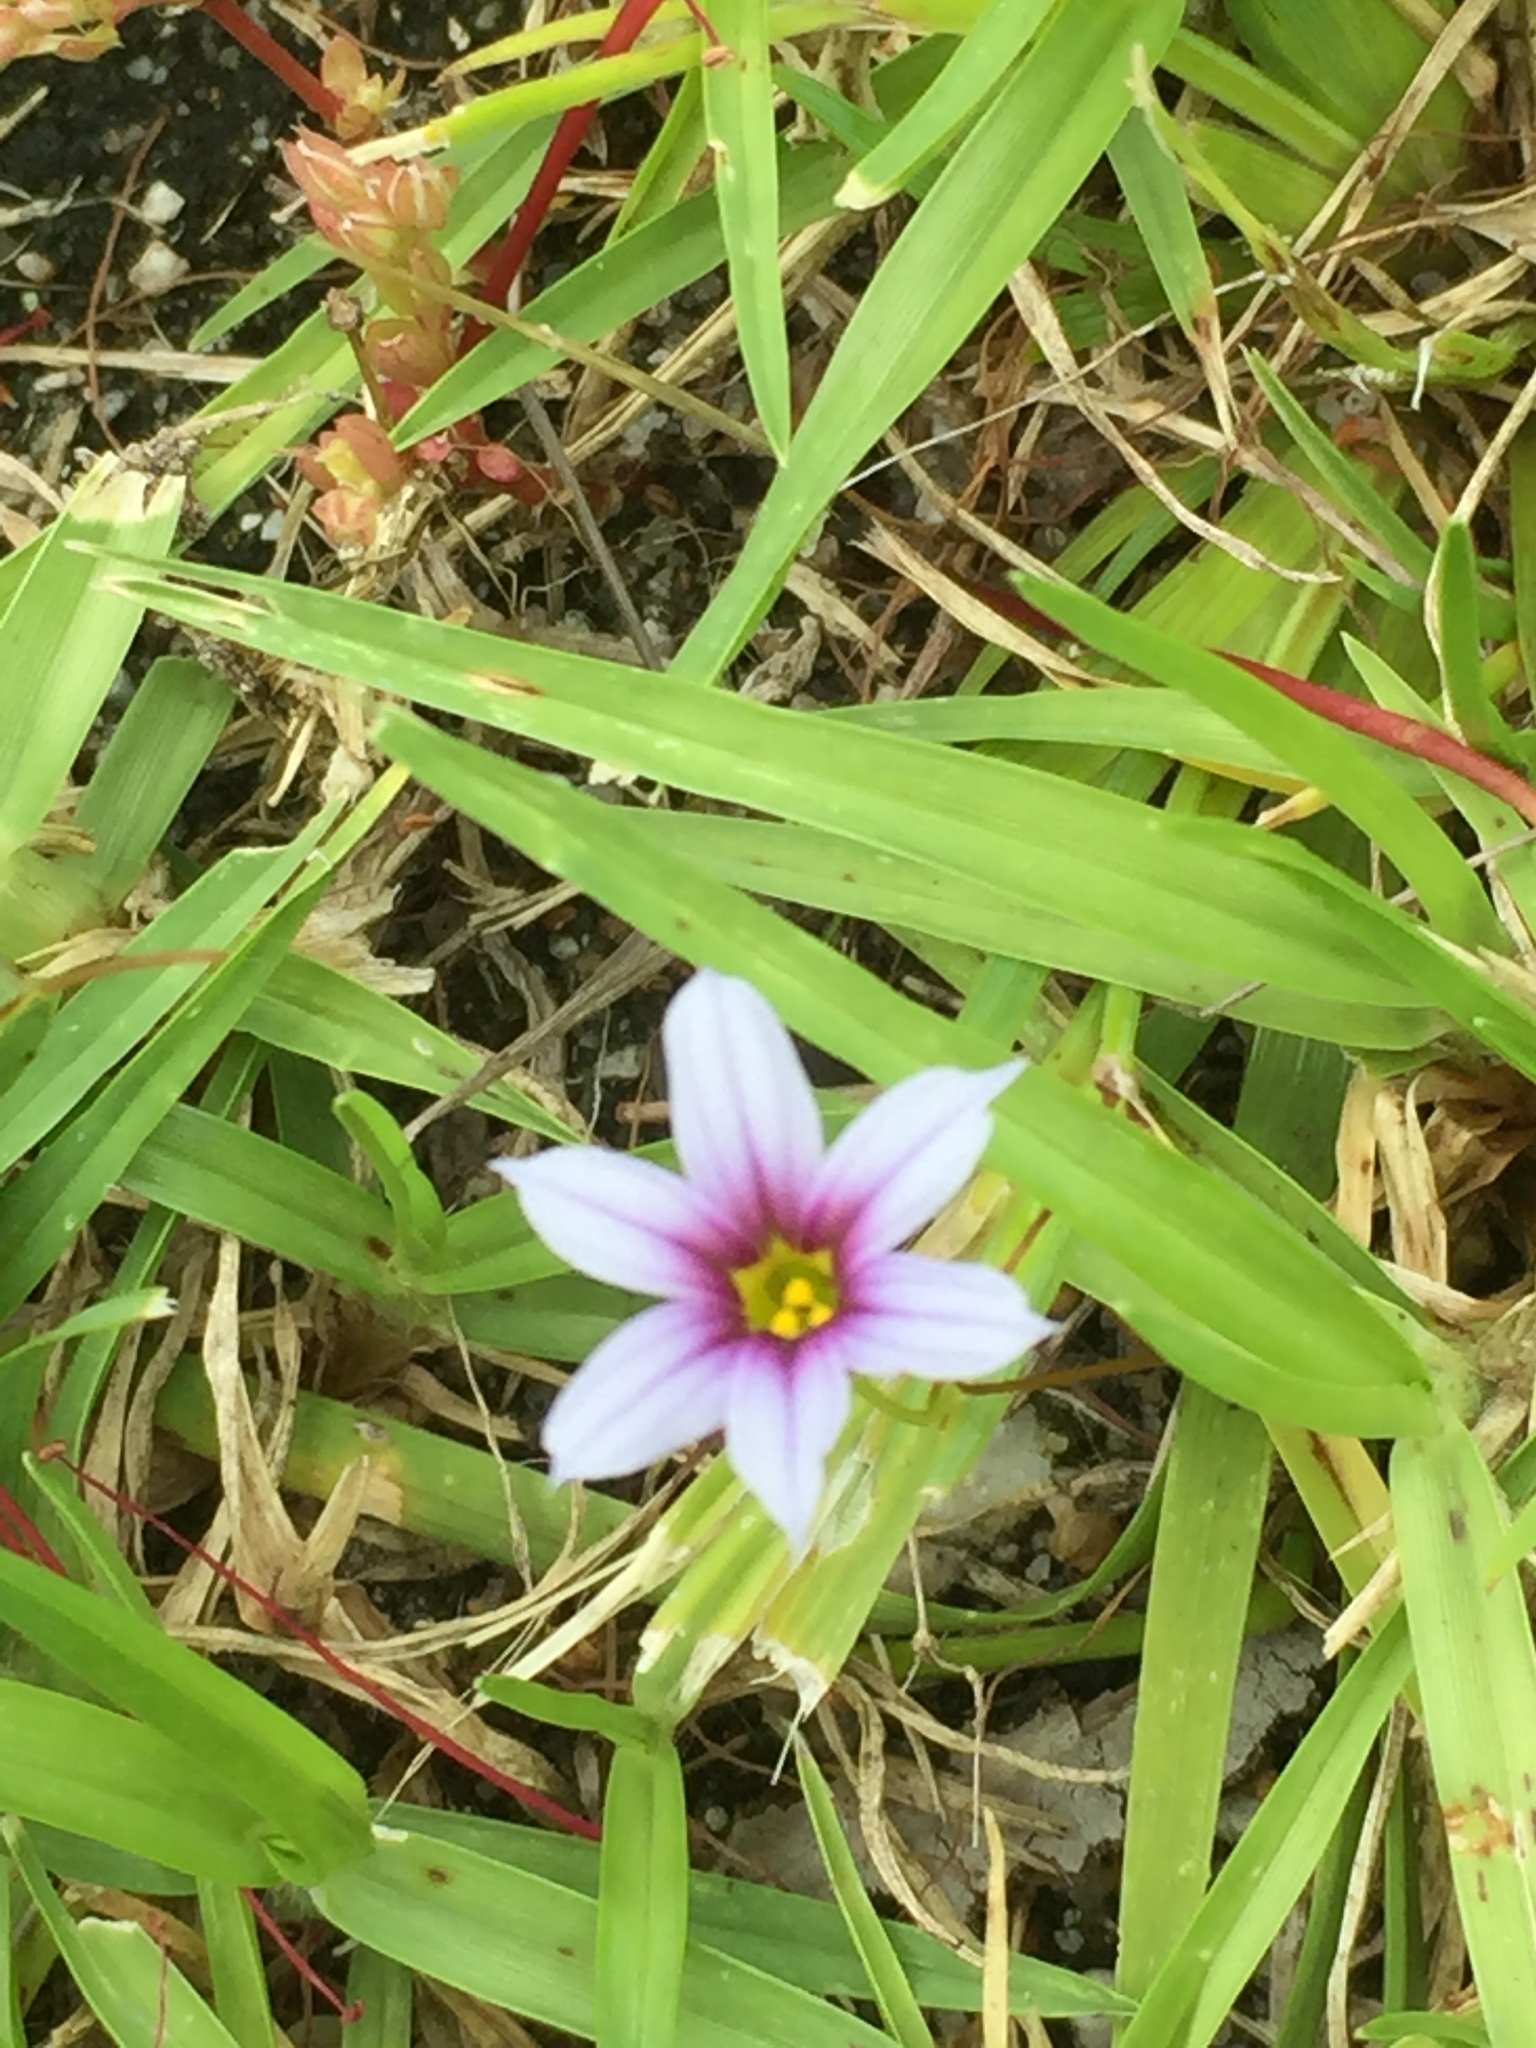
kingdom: Plantae
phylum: Tracheophyta
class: Liliopsida
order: Asparagales
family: Iridaceae
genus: Sisyrinchium
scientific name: Sisyrinchium micranthum
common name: Bermuda pigroot
